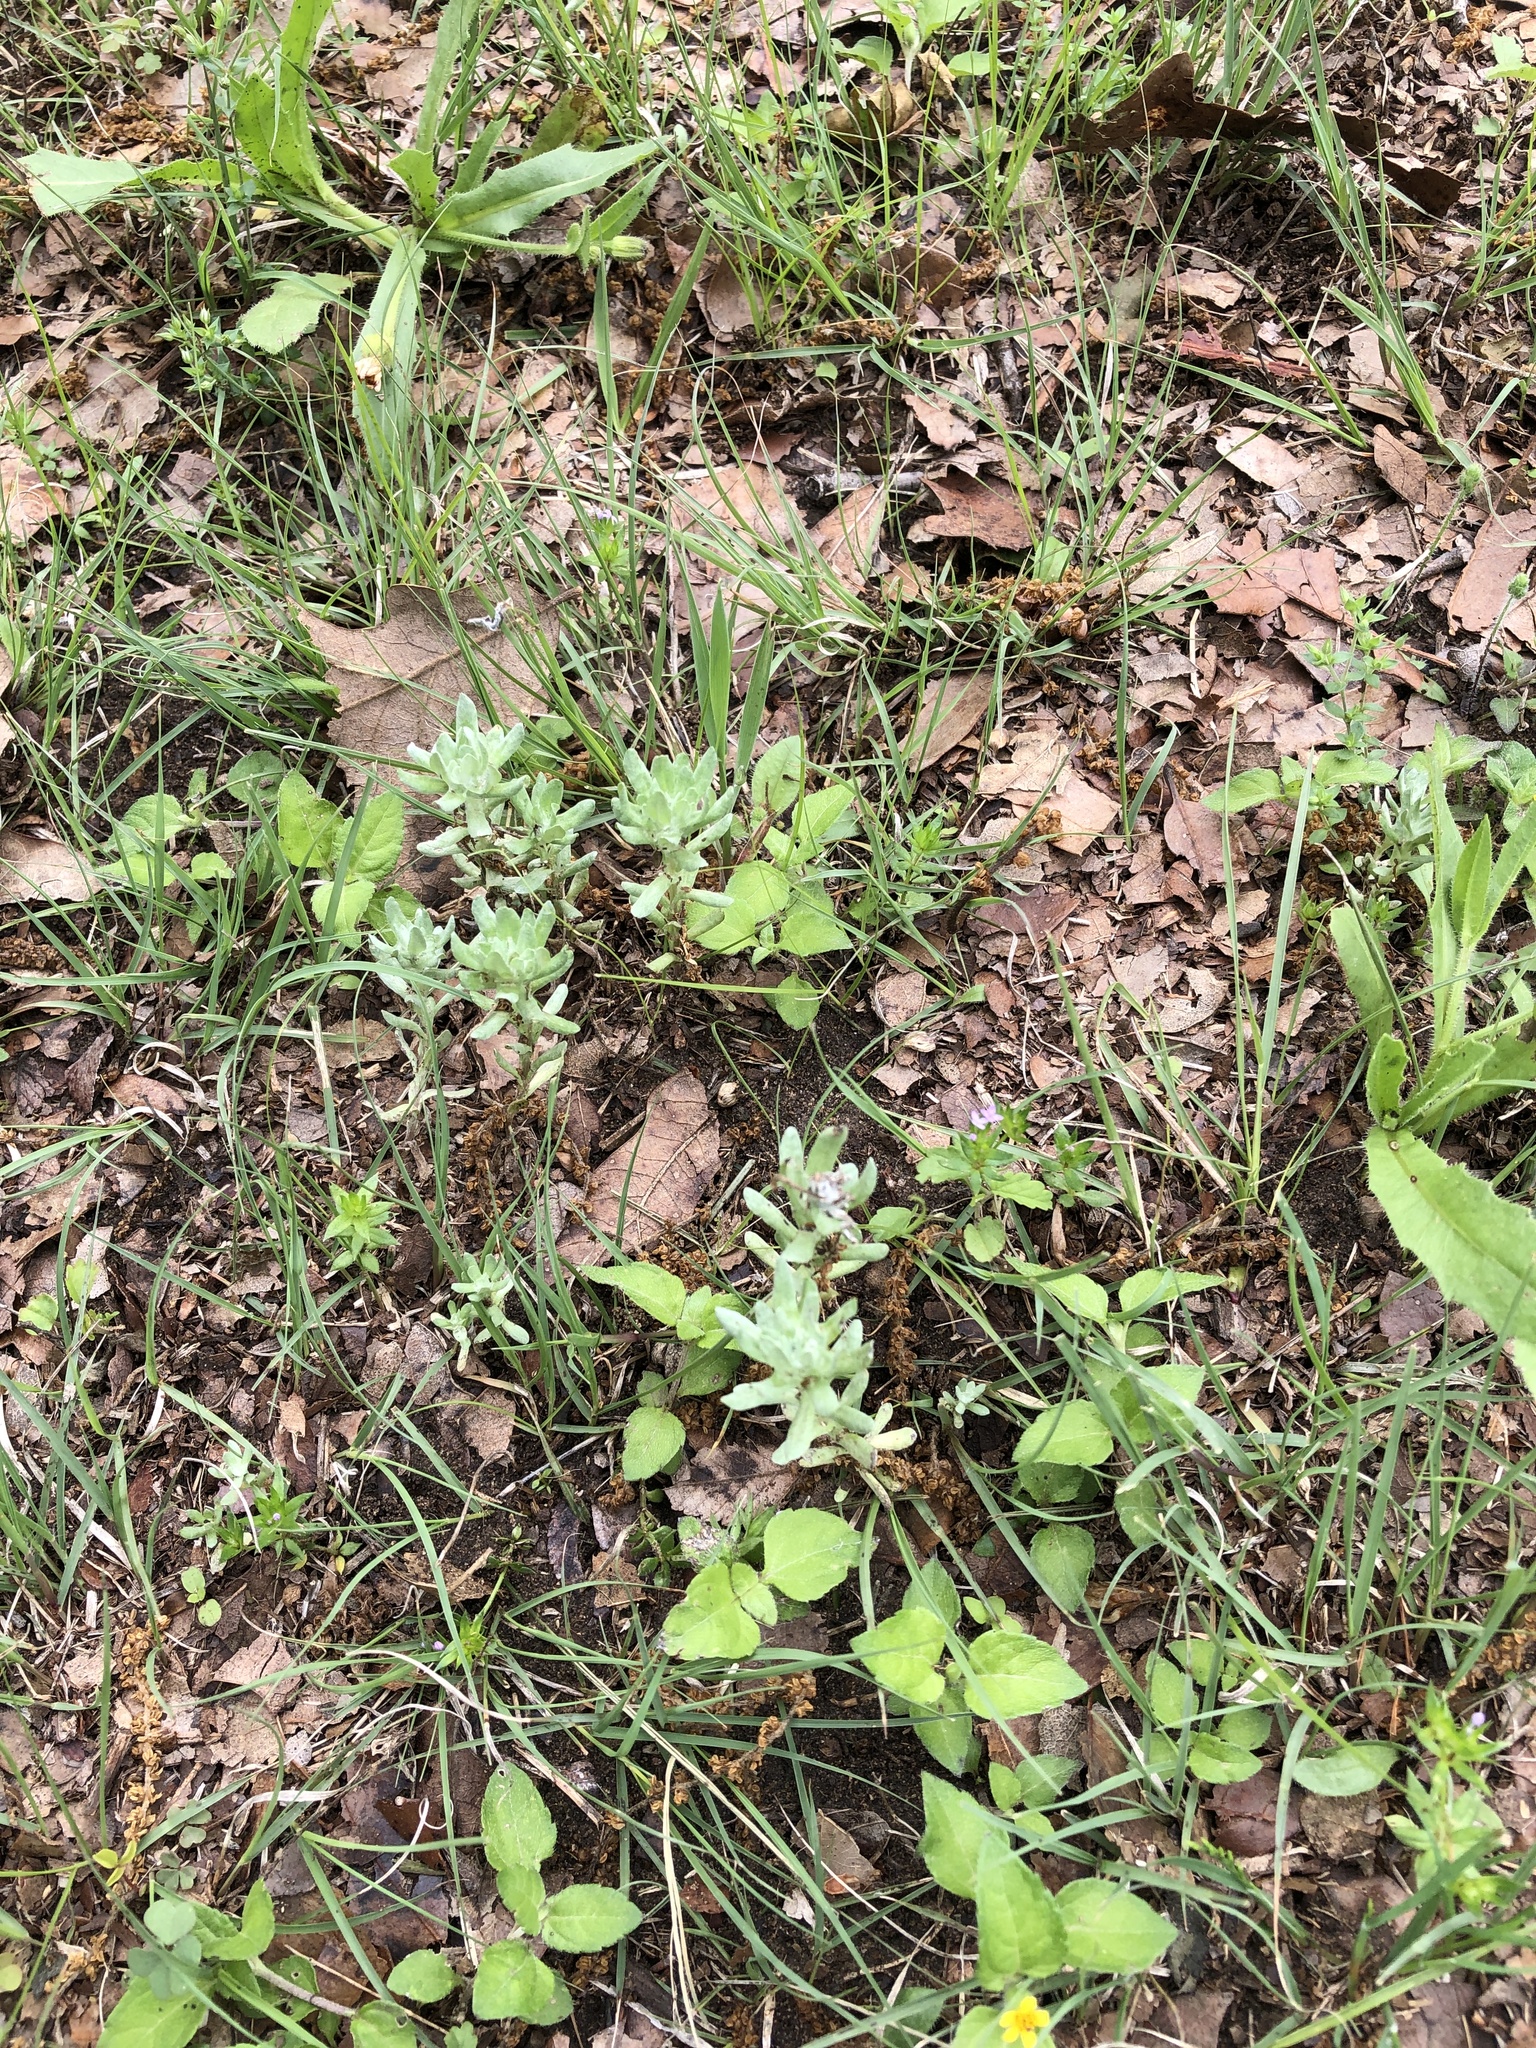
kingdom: Plantae
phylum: Tracheophyta
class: Magnoliopsida
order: Asterales
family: Asteraceae
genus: Diaperia
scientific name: Diaperia prolifera
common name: Big-head rabbit-tobacco
